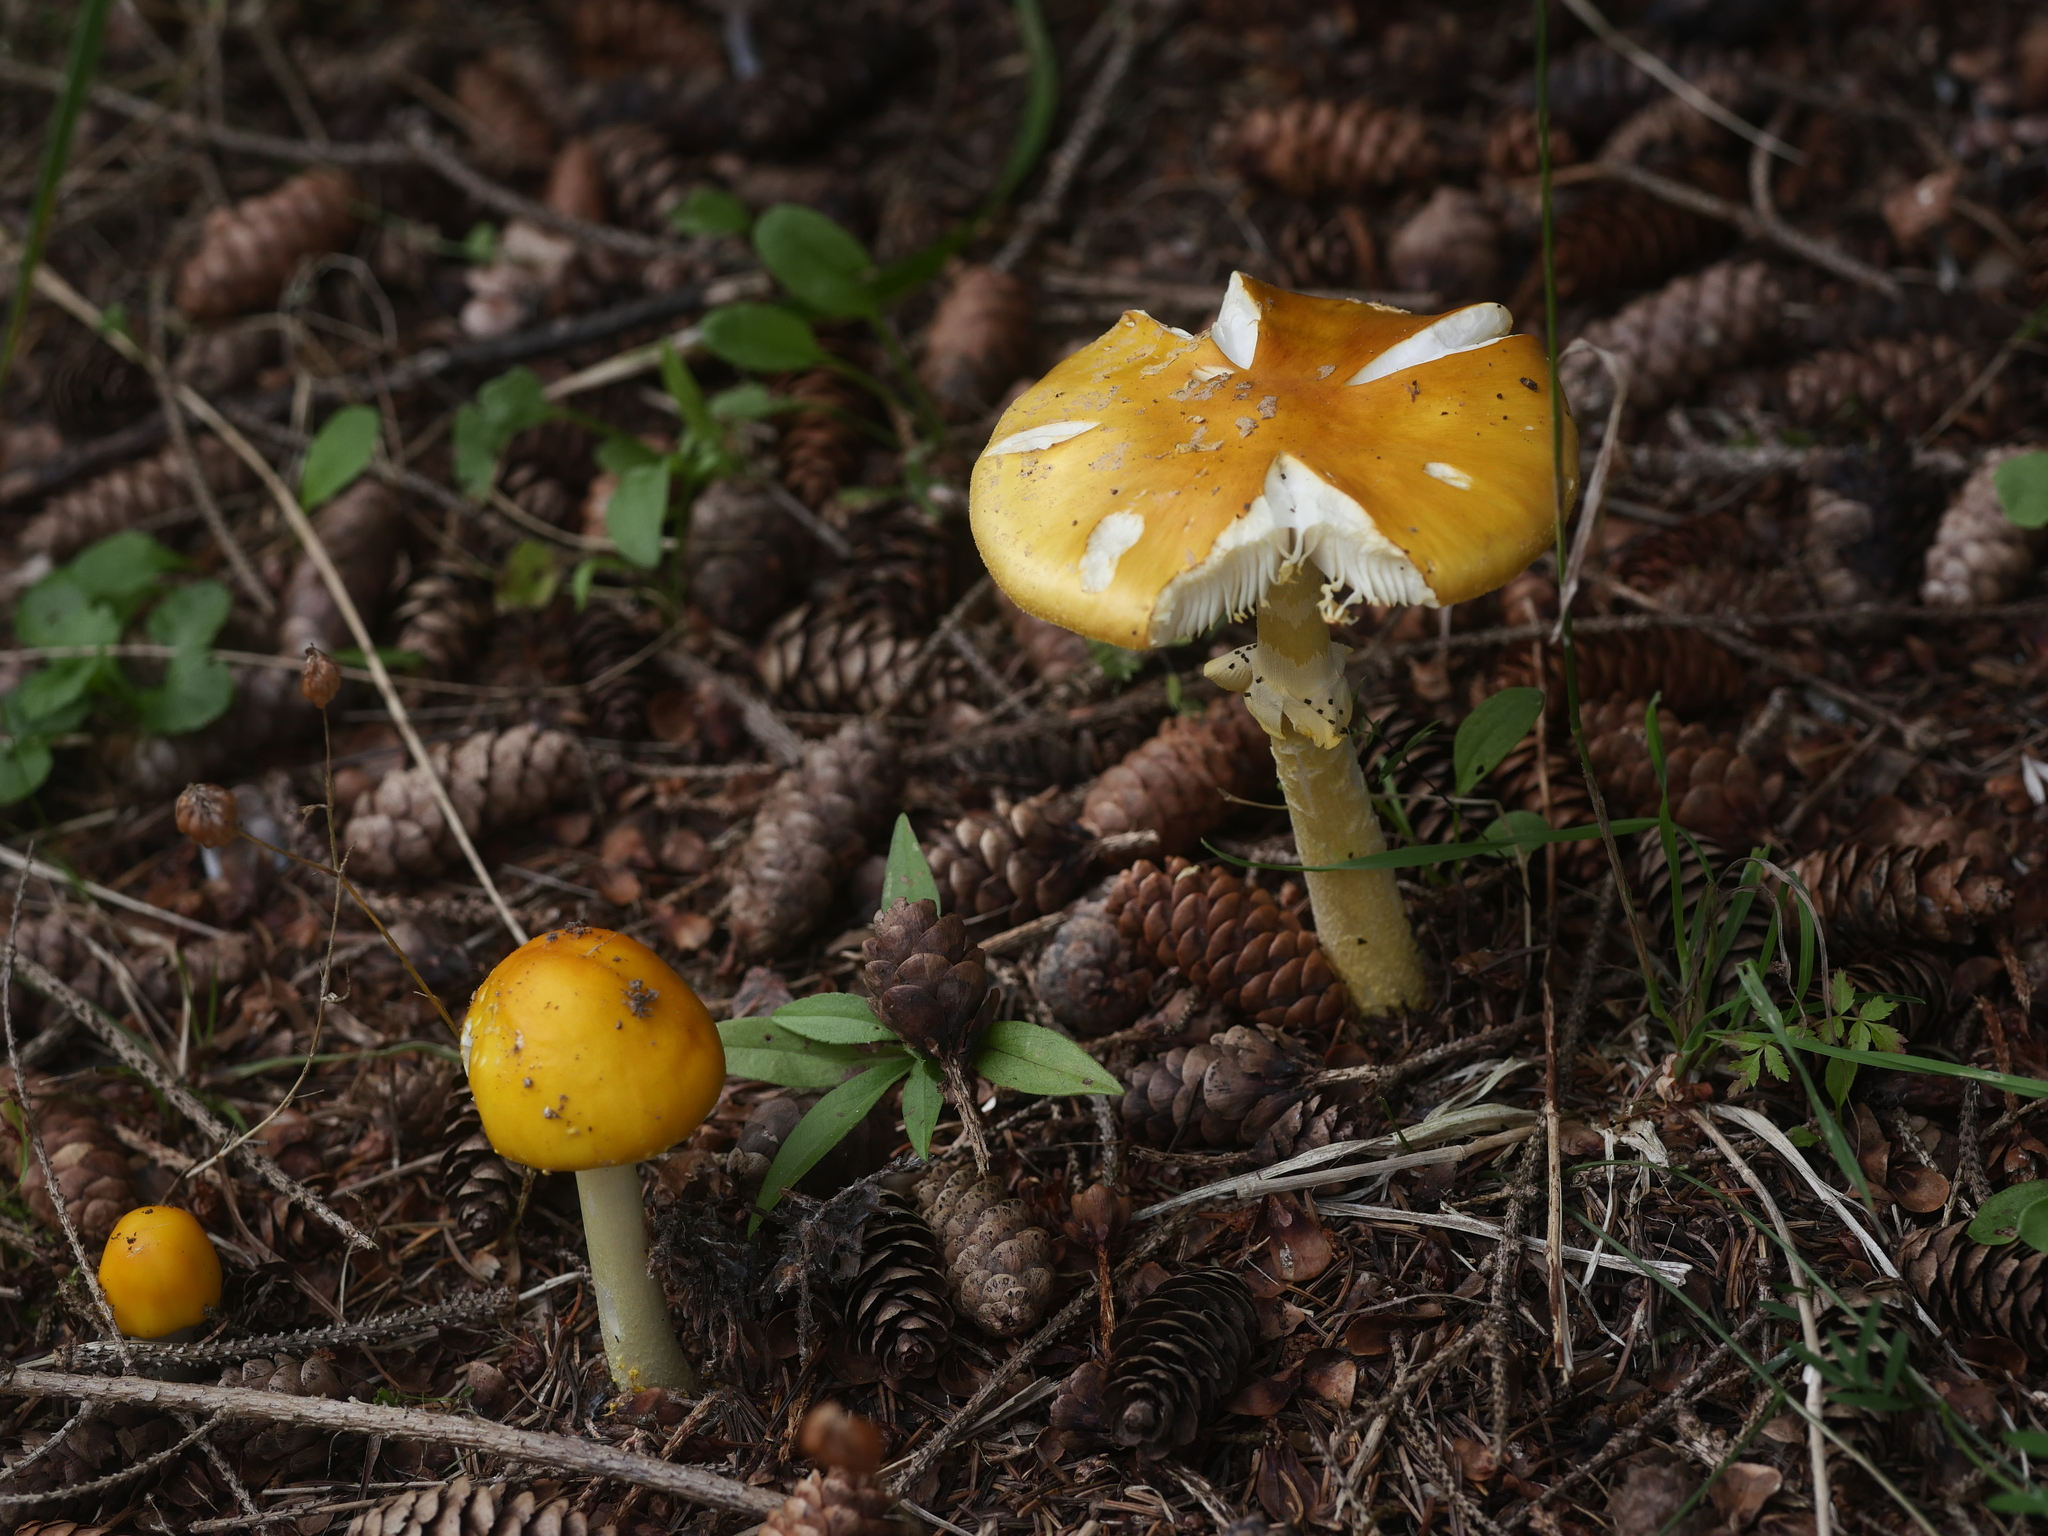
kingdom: Fungi
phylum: Basidiomycota
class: Agaricomycetes
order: Agaricales
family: Amanitaceae
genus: Amanita
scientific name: Amanita flavoconia
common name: Yellow patches
